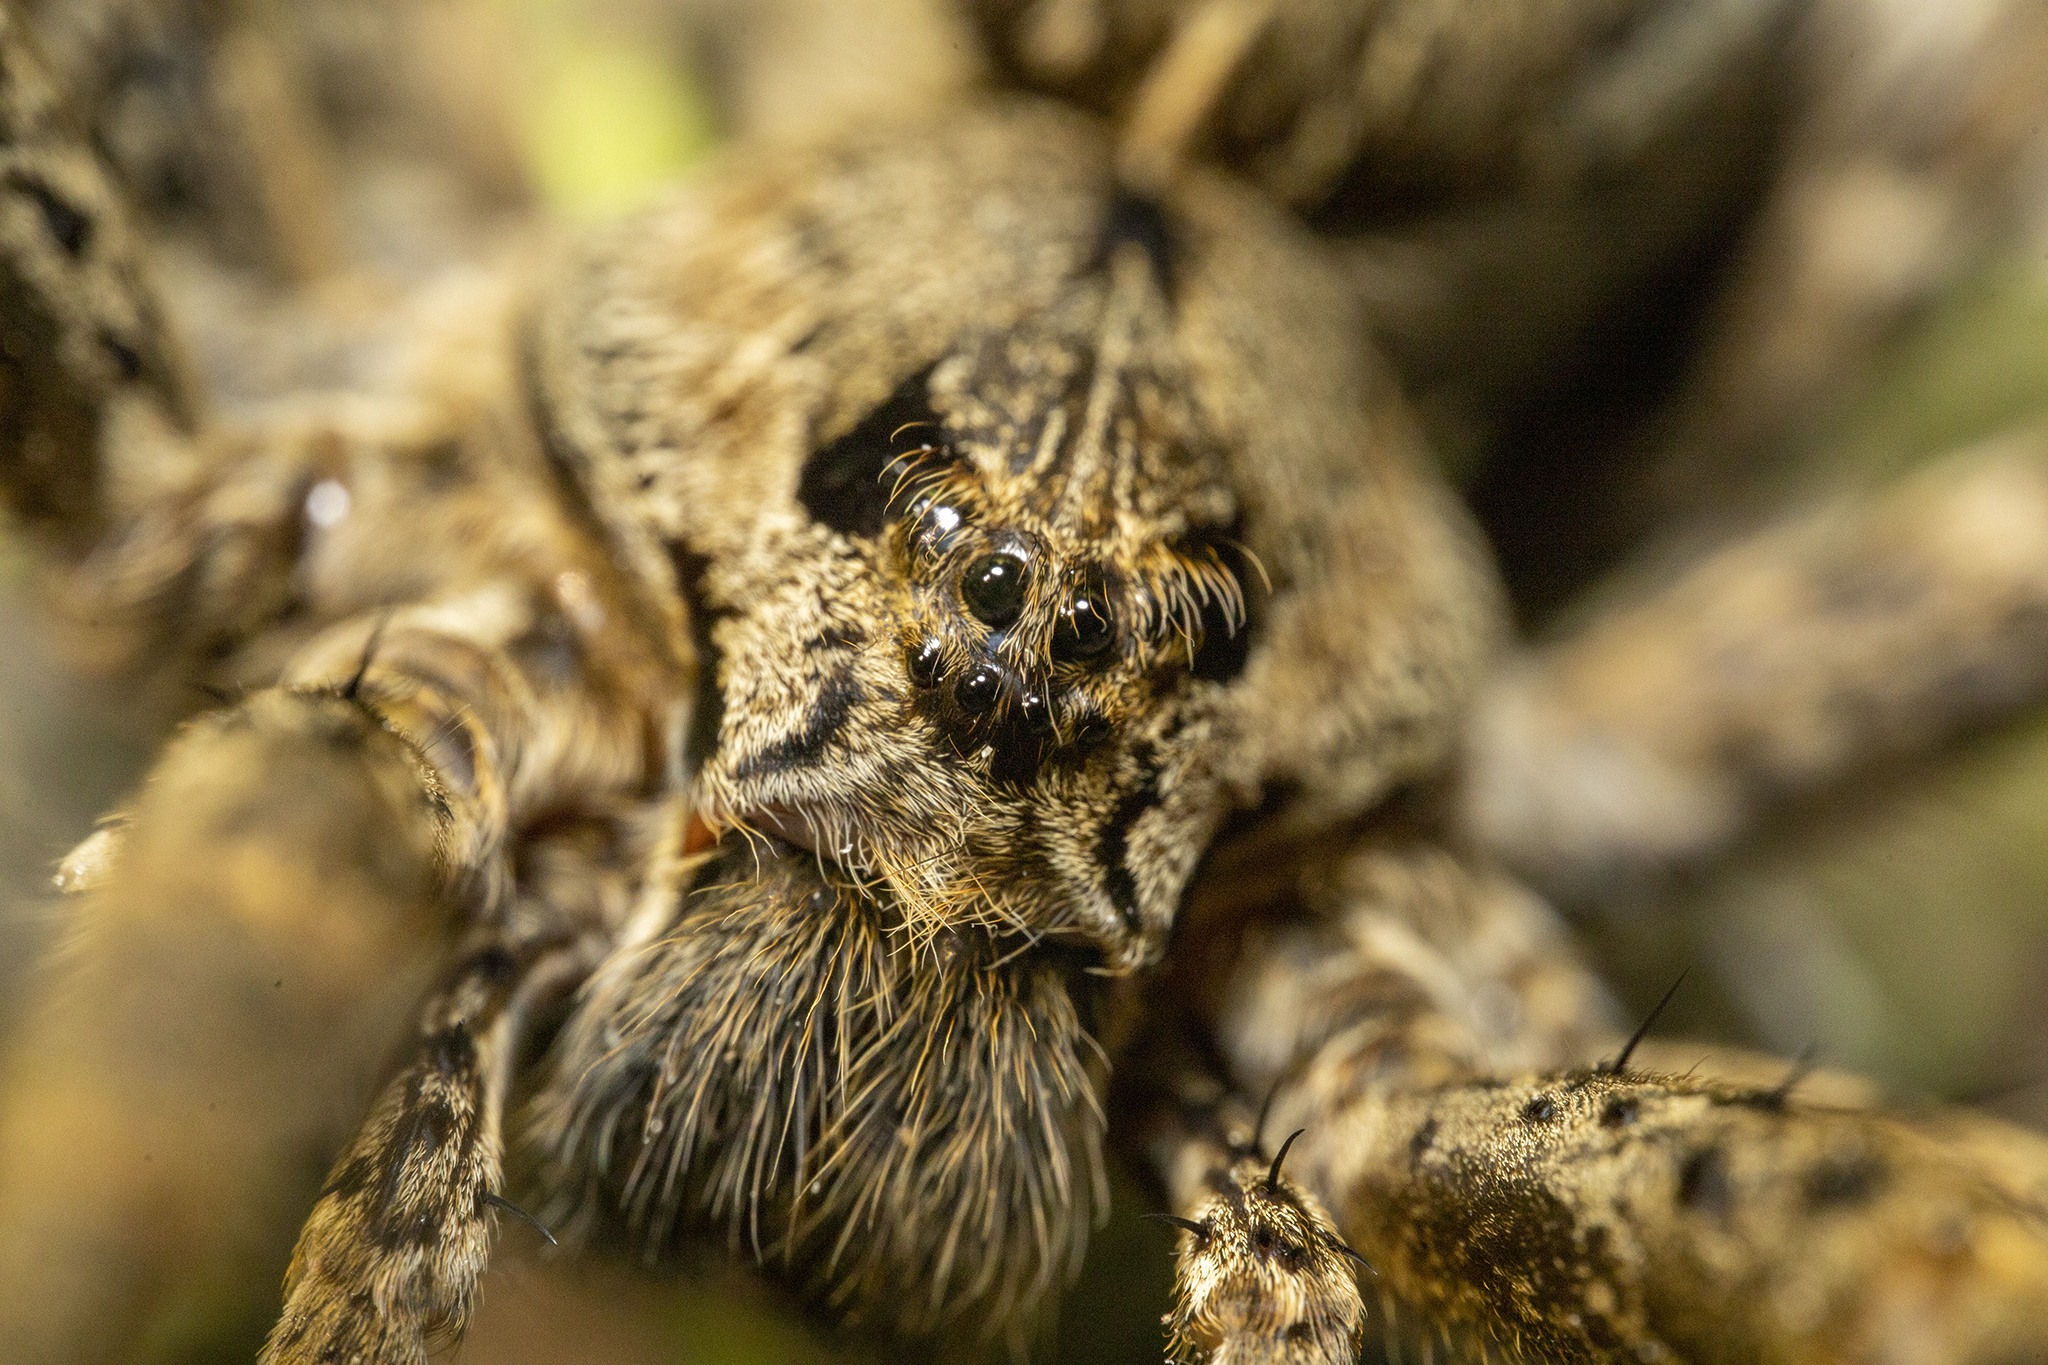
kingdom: Animalia
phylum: Arthropoda
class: Arachnida
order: Araneae
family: Pisauridae
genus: Dolomedes
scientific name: Dolomedes dondalei
